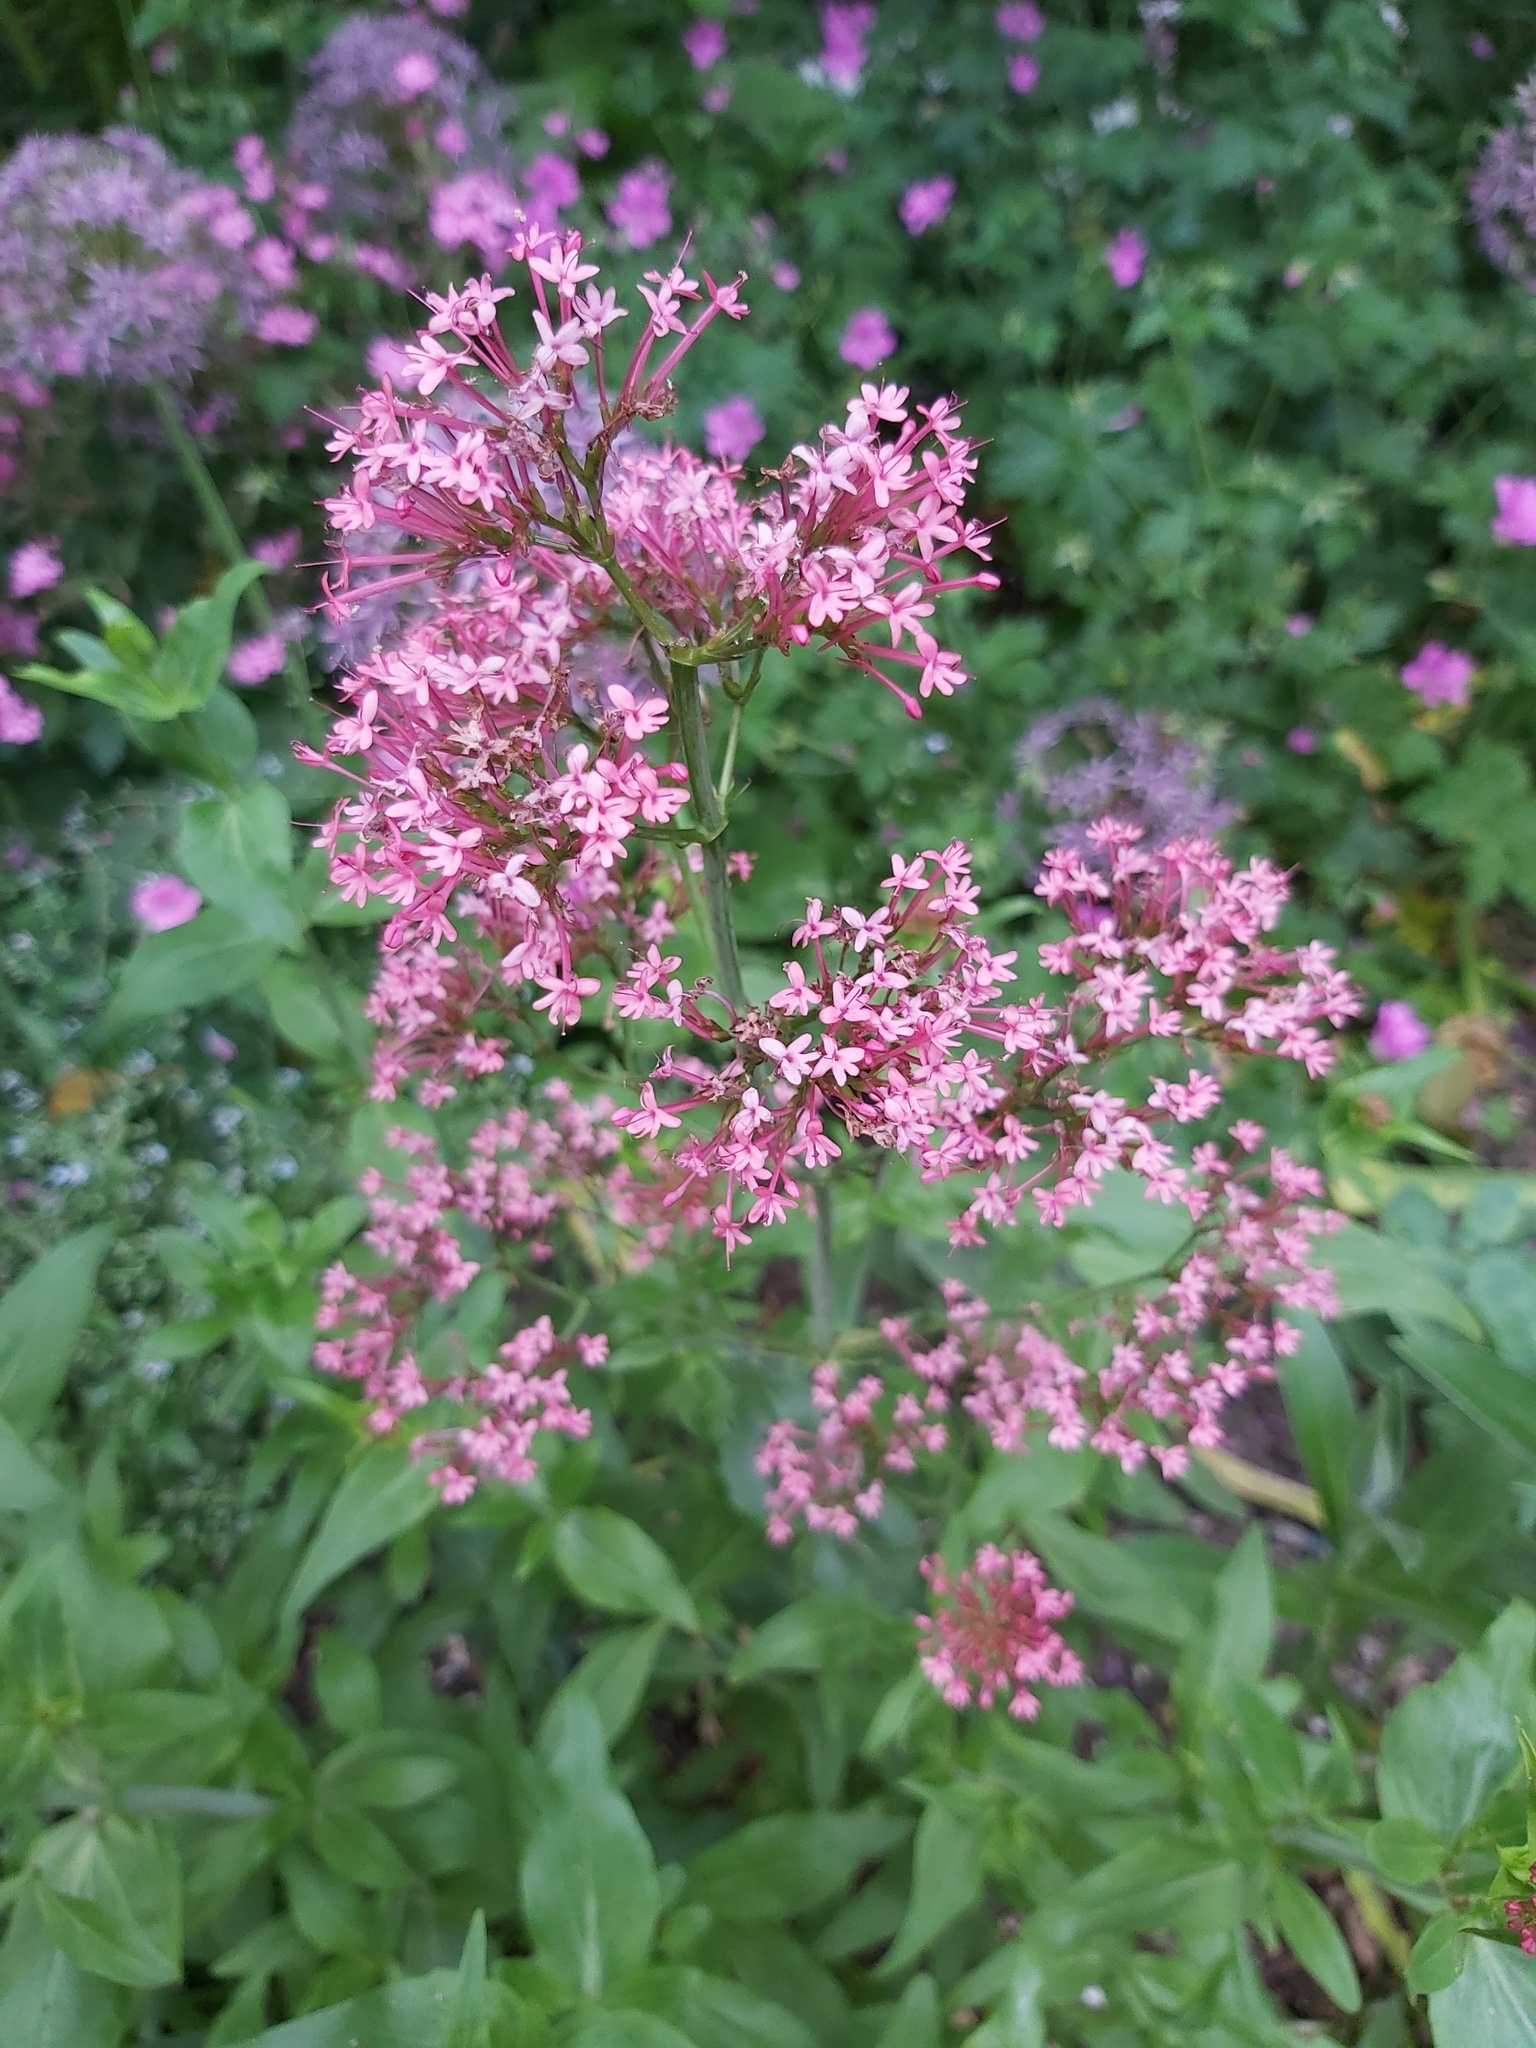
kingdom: Plantae
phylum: Tracheophyta
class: Magnoliopsida
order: Dipsacales
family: Caprifoliaceae
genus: Centranthus
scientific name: Centranthus ruber
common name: Red valerian
